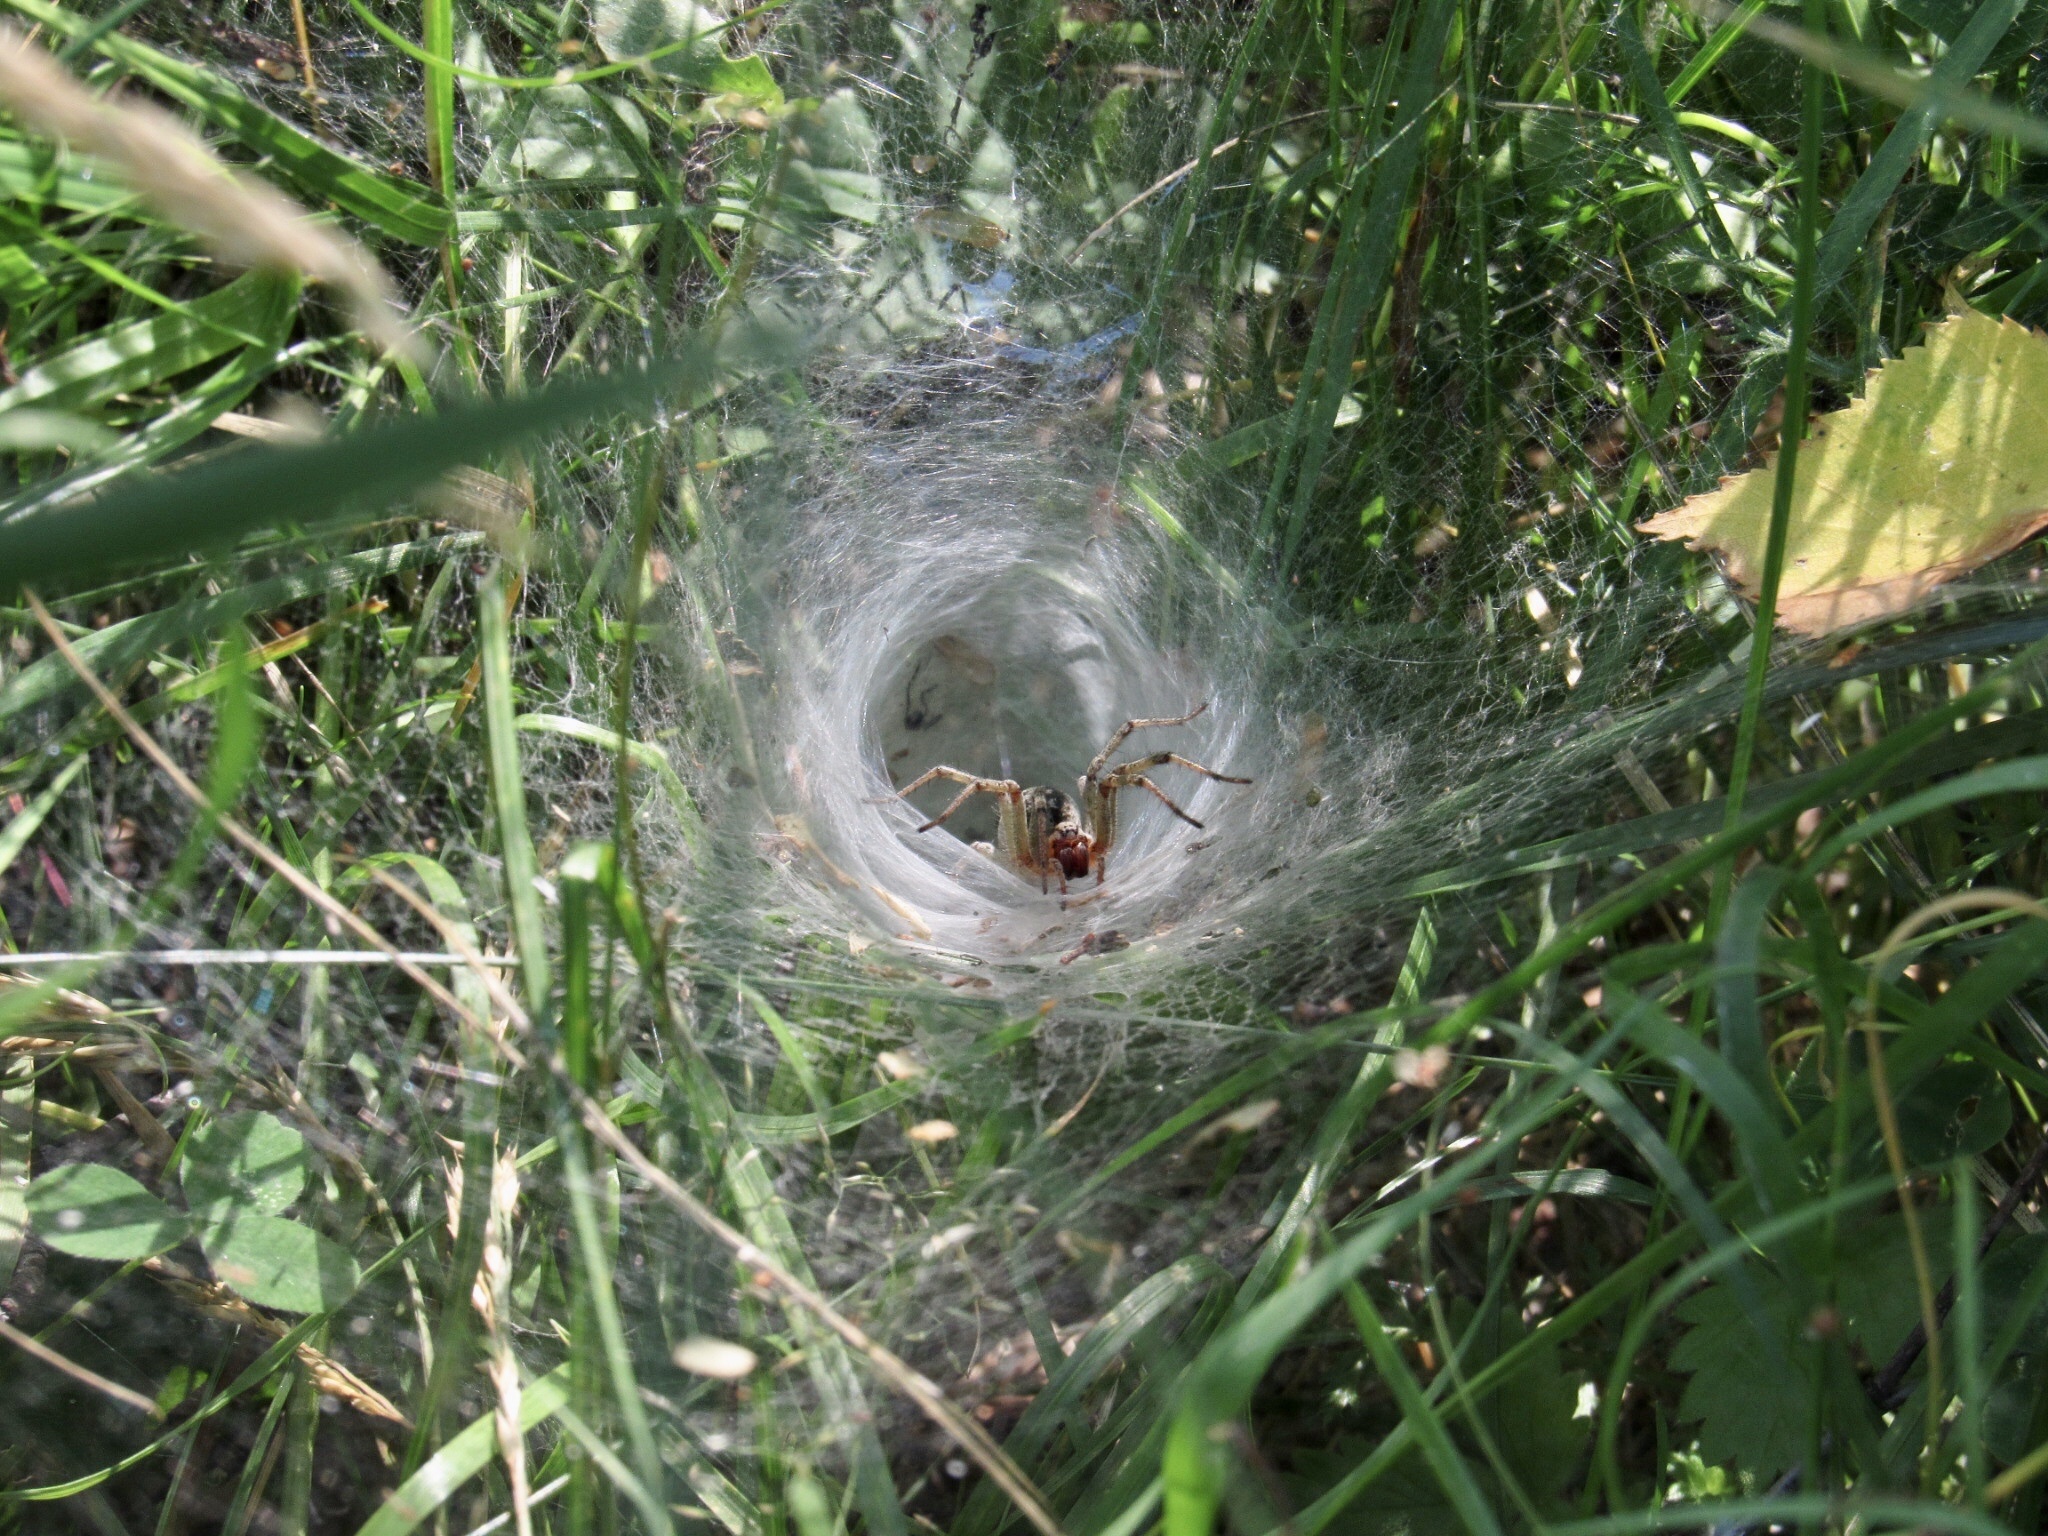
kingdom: Animalia
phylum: Arthropoda
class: Arachnida
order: Araneae
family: Agelenidae
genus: Agelena
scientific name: Agelena labyrinthica
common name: Labyrinth spider
